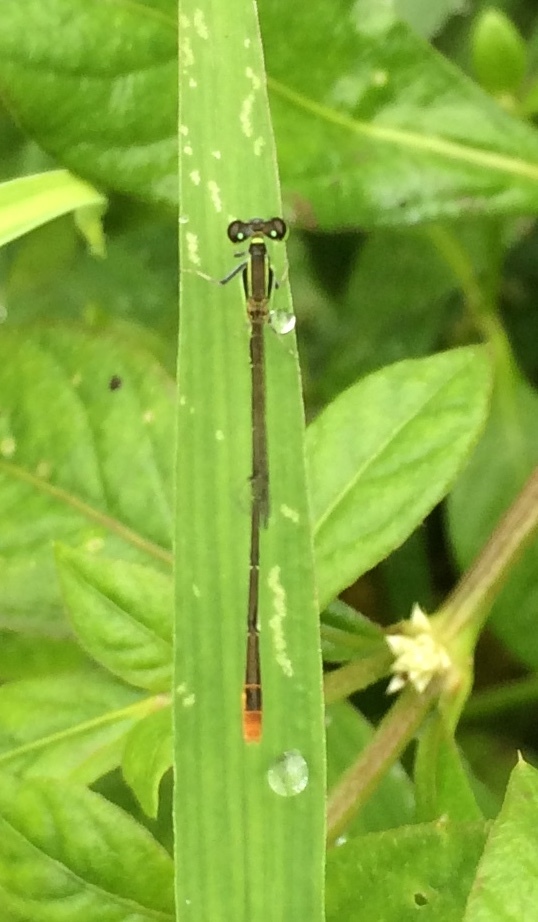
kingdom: Animalia
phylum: Arthropoda
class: Insecta
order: Odonata
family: Coenagrionidae
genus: Agriocnemis
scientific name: Agriocnemis pygmaea
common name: Pygmy wisp
